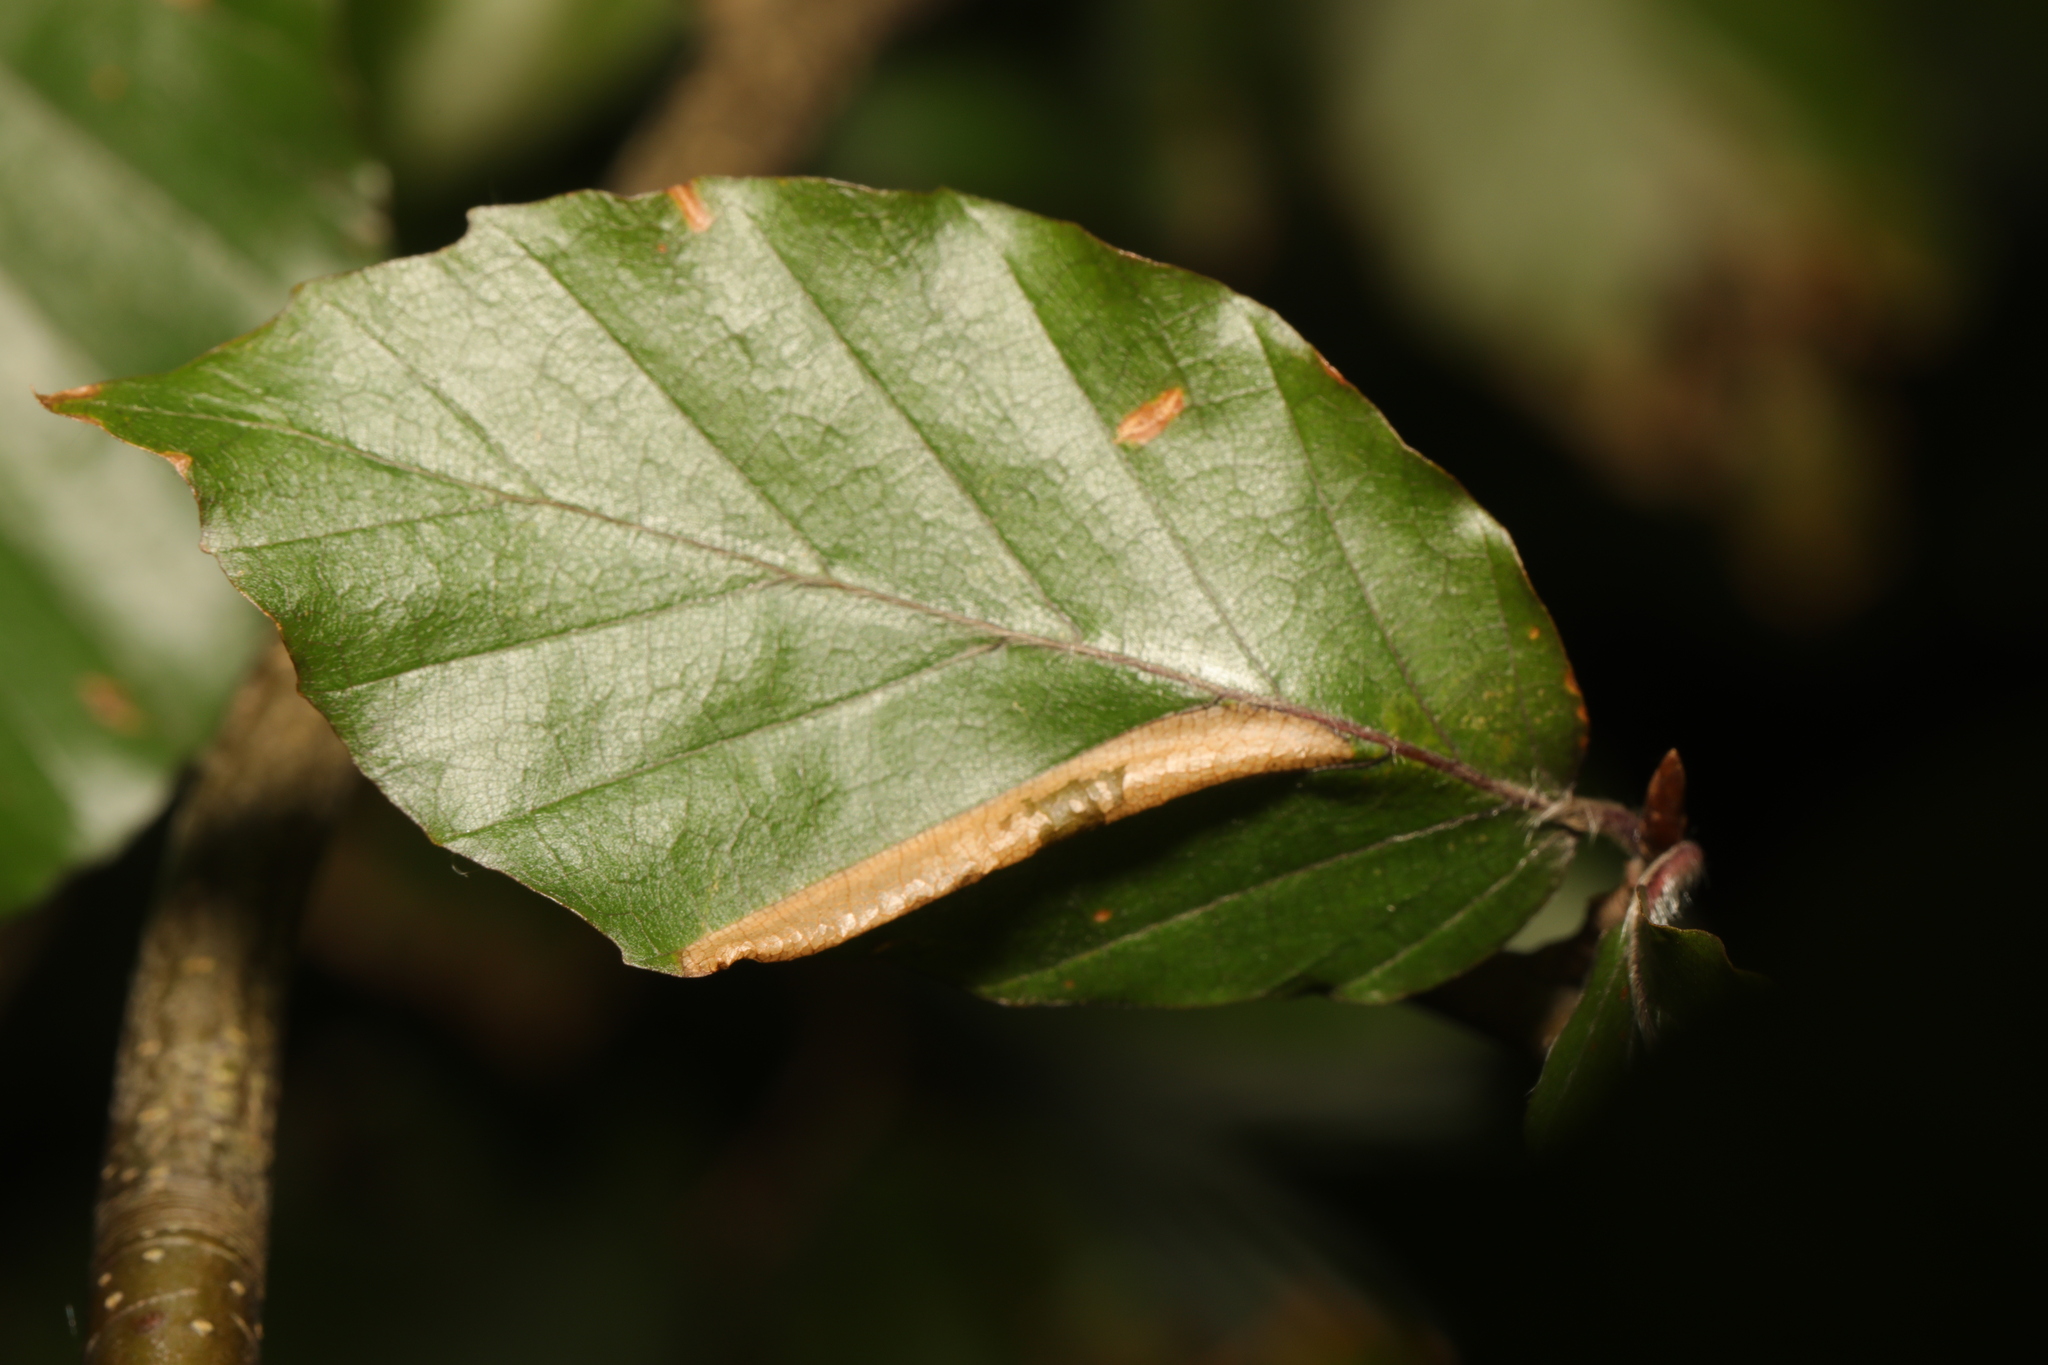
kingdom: Animalia
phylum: Arthropoda
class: Insecta
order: Lepidoptera
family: Gracillariidae
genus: Phyllonorycter
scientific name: Phyllonorycter maestingella
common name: Beech midget
